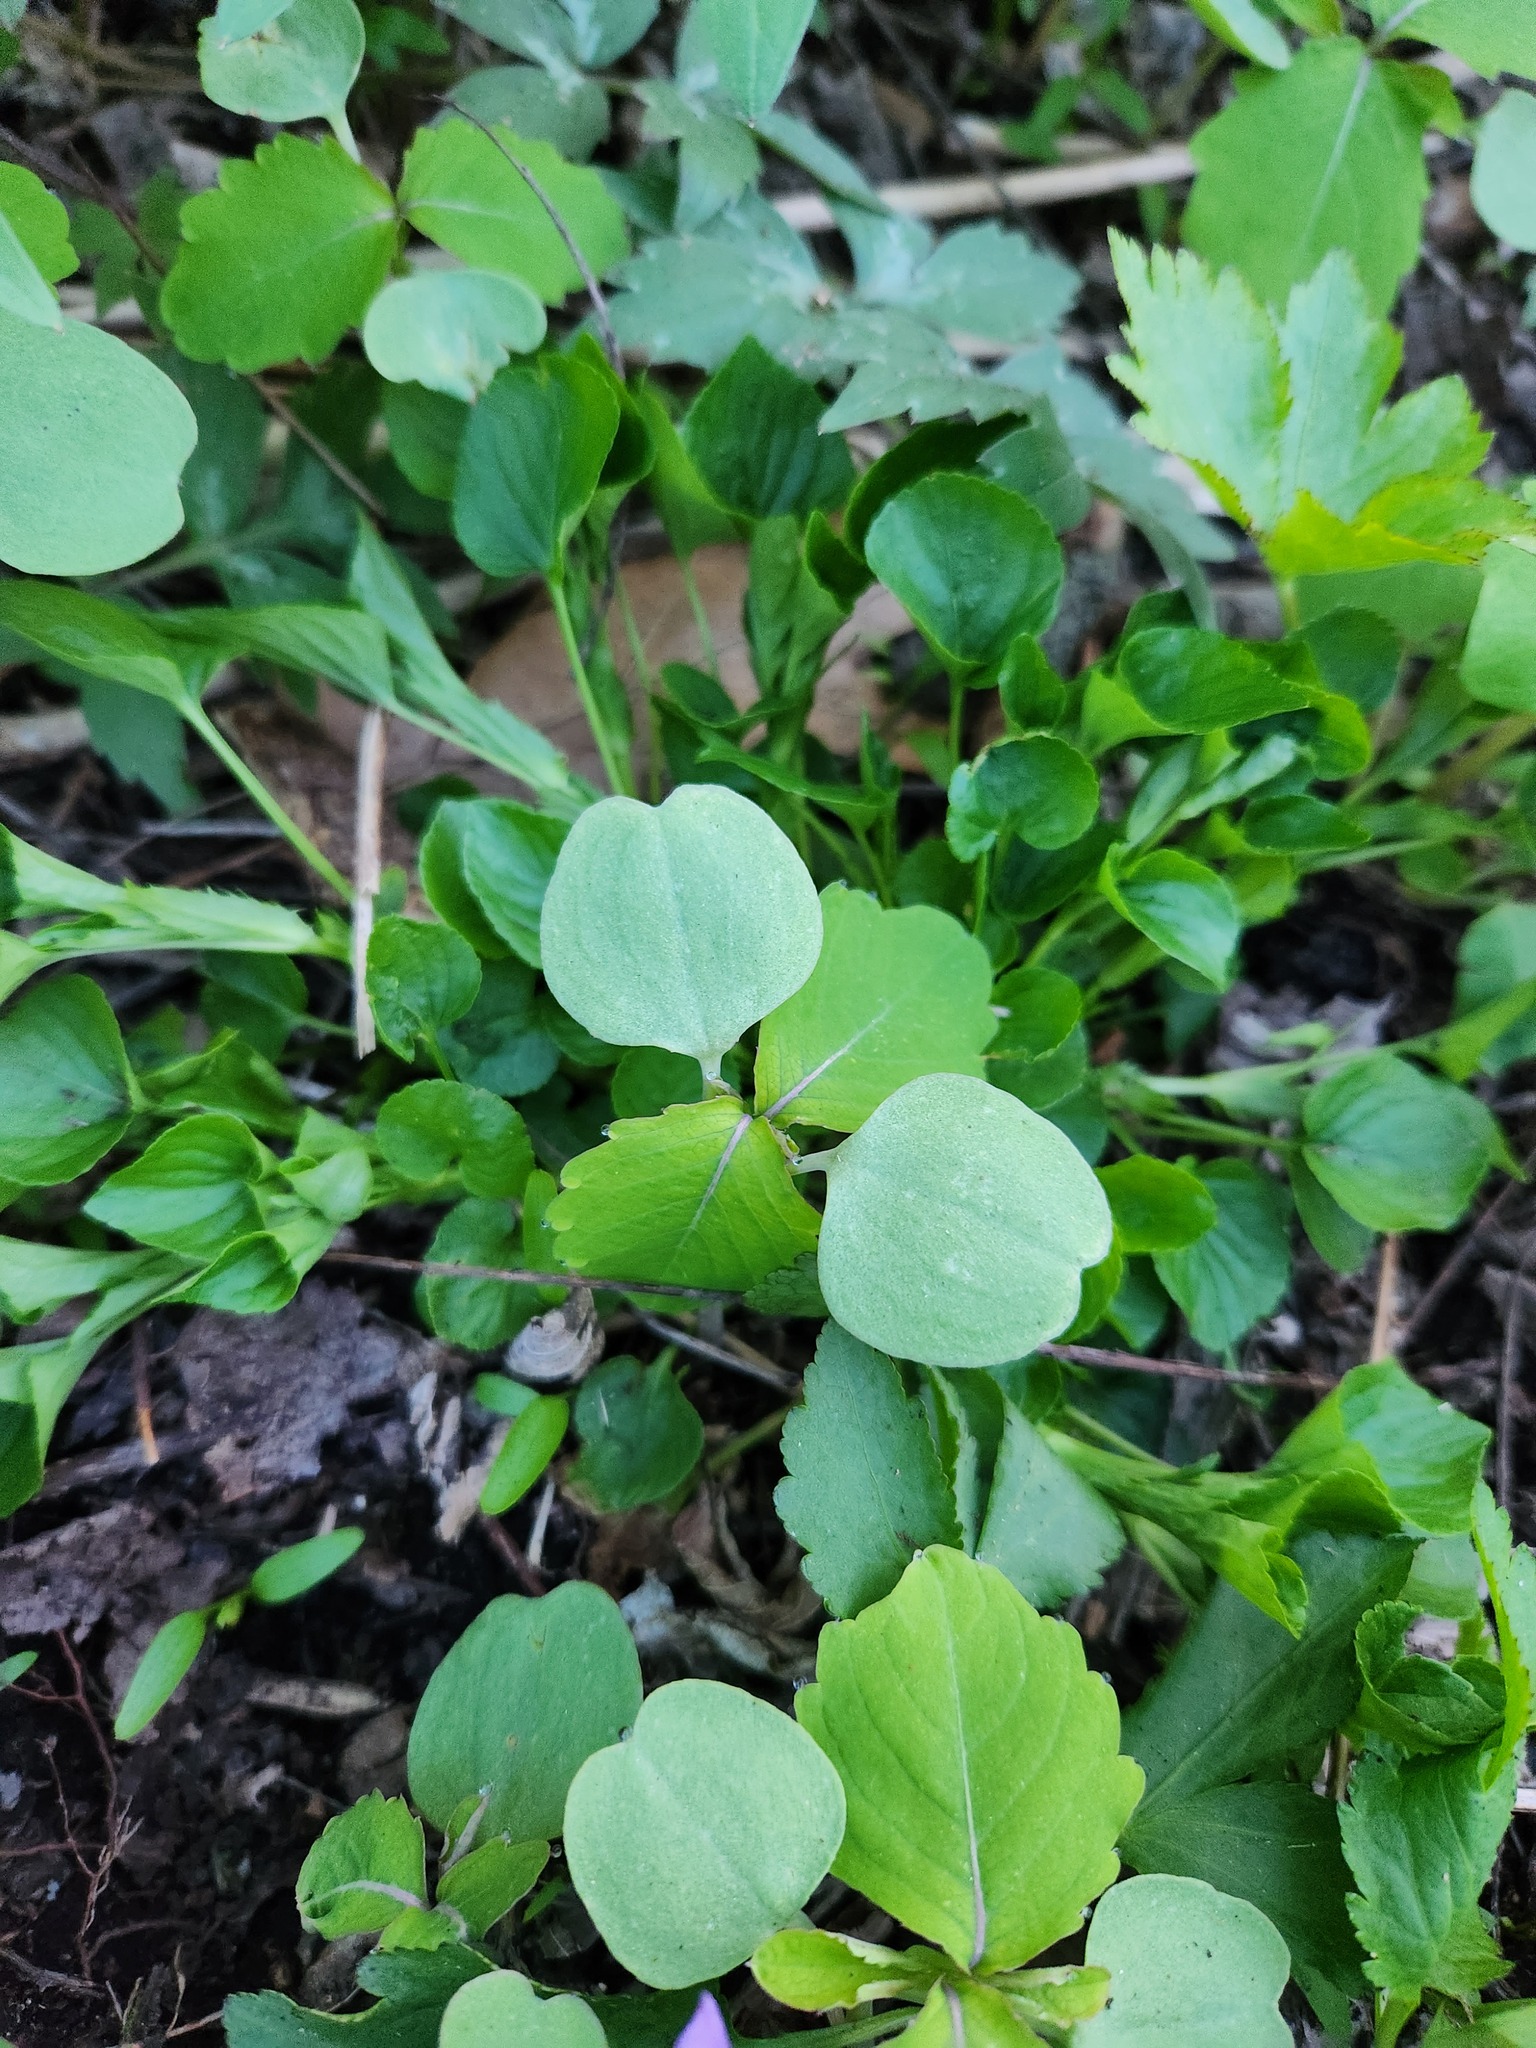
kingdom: Plantae
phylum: Tracheophyta
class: Magnoliopsida
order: Ericales
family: Balsaminaceae
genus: Impatiens
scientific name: Impatiens capensis
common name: Orange balsam
